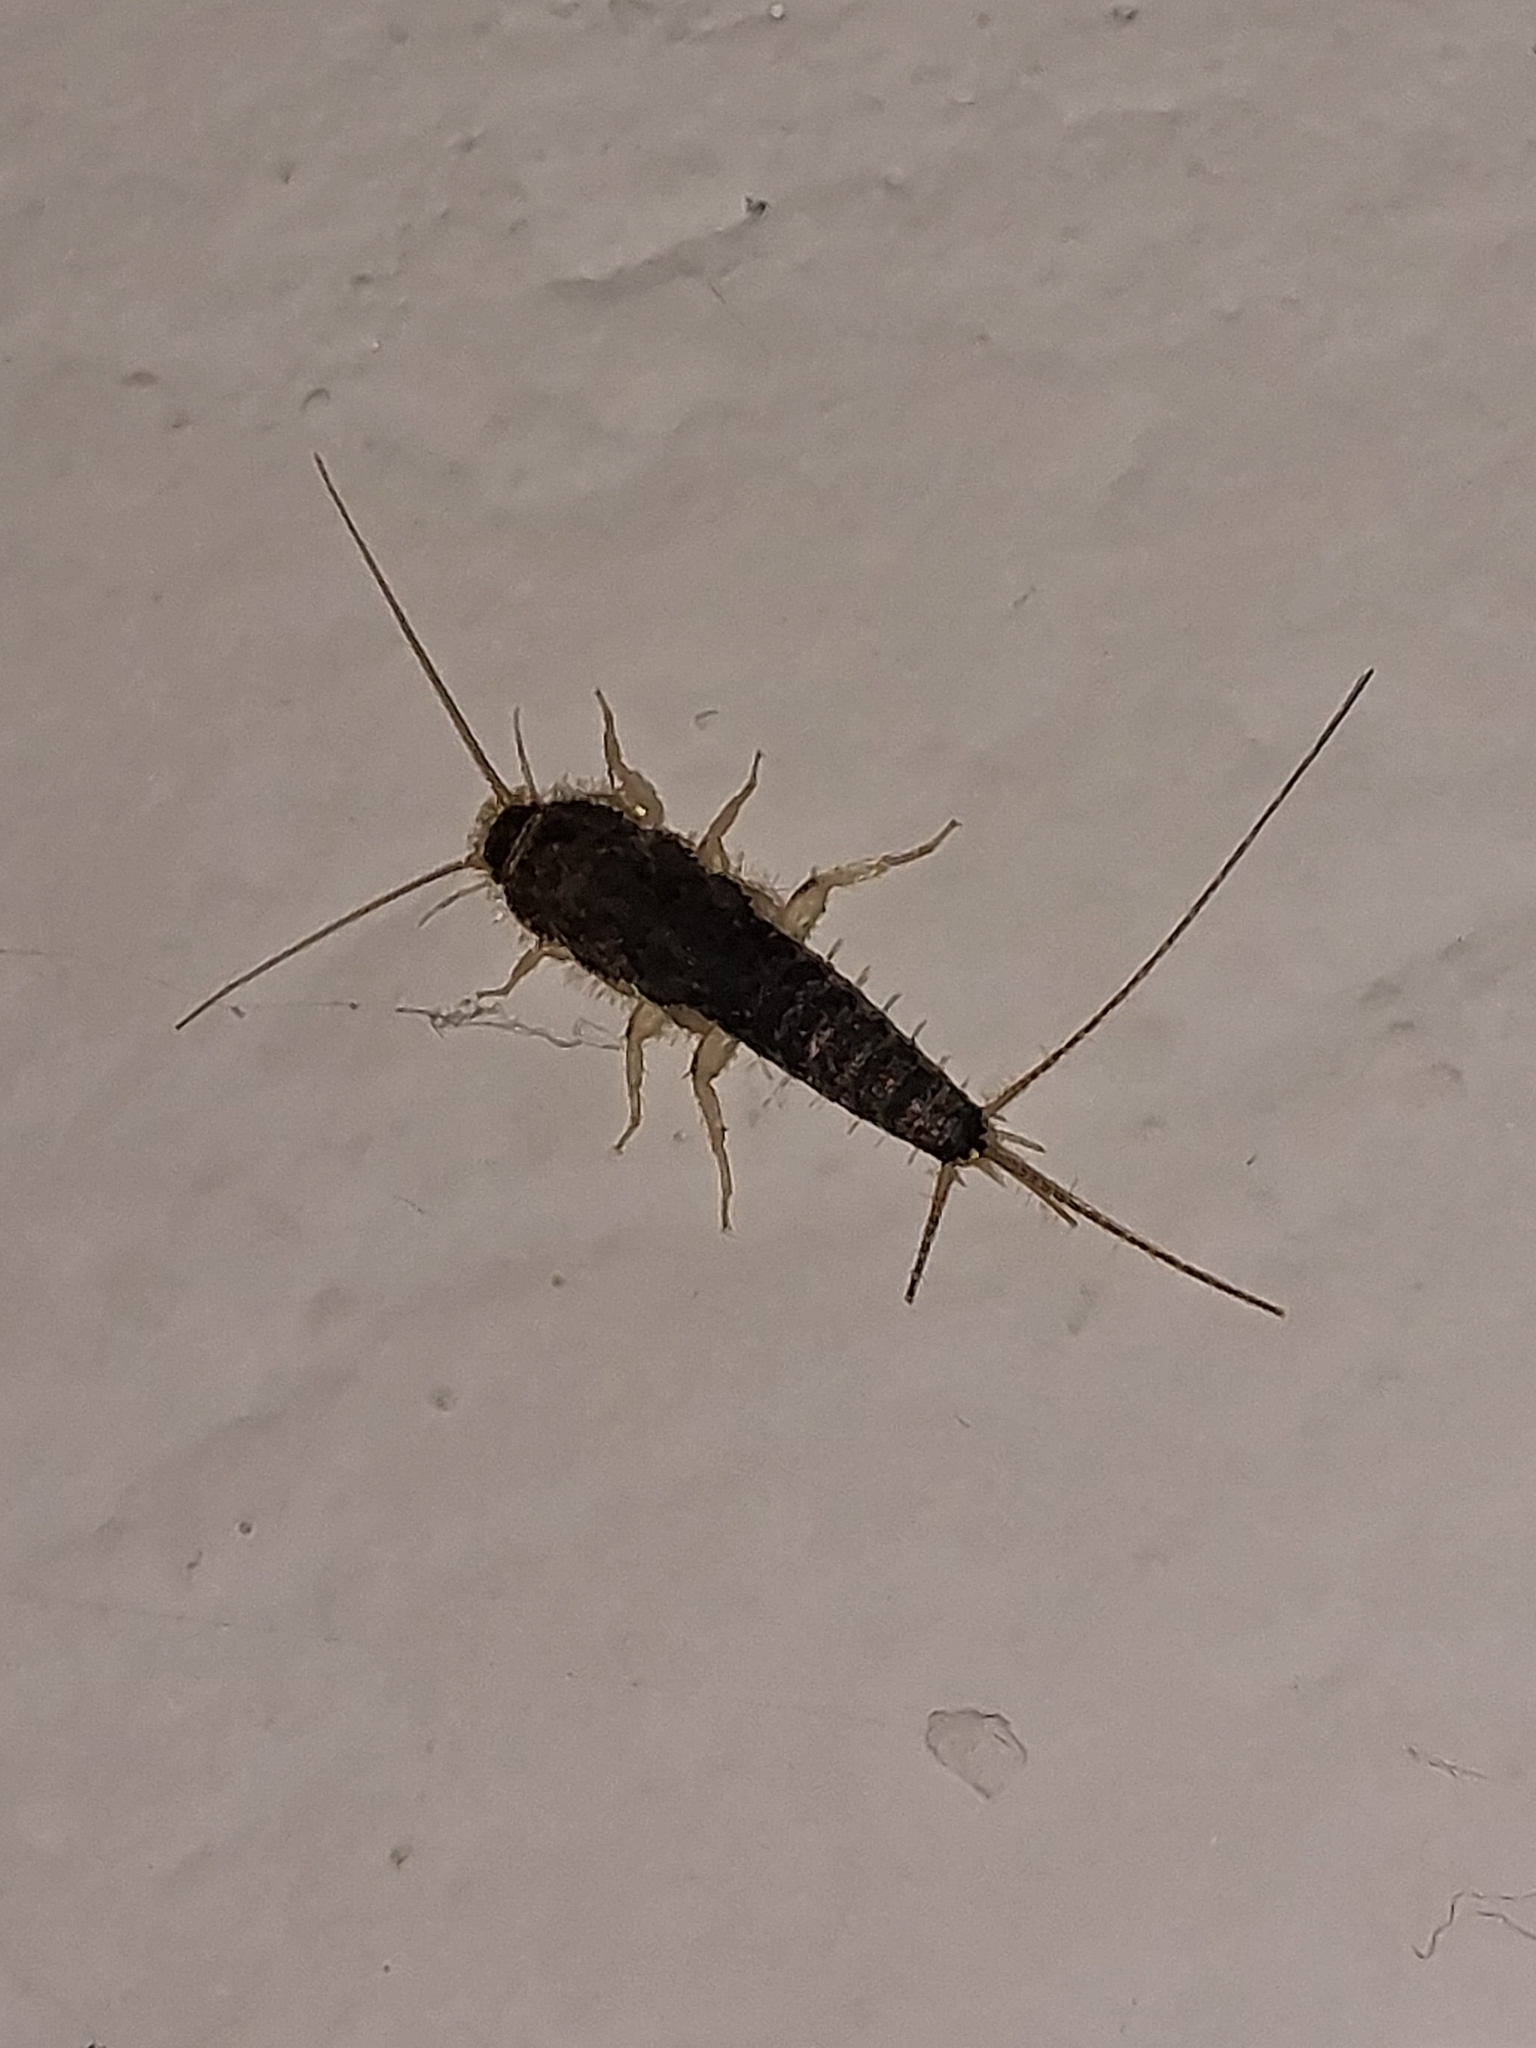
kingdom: Animalia
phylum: Arthropoda
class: Insecta
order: Zygentoma
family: Lepismatidae
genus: Ctenolepisma
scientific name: Ctenolepisma longicaudatum
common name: Silverfish
